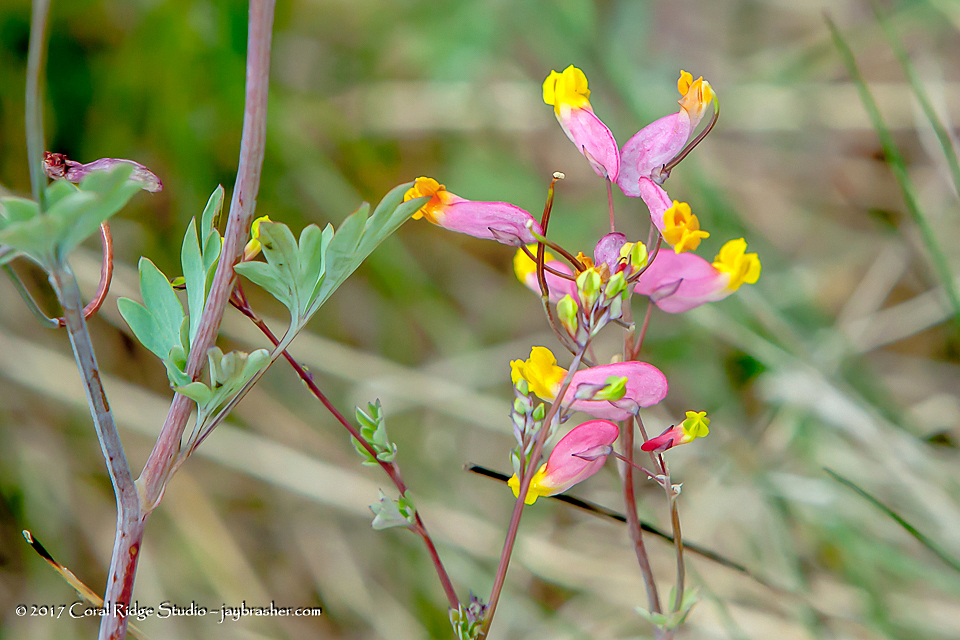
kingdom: Plantae
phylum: Tracheophyta
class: Magnoliopsida
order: Ranunculales
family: Papaveraceae
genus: Capnoides
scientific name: Capnoides sempervirens
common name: Rock harlequin
